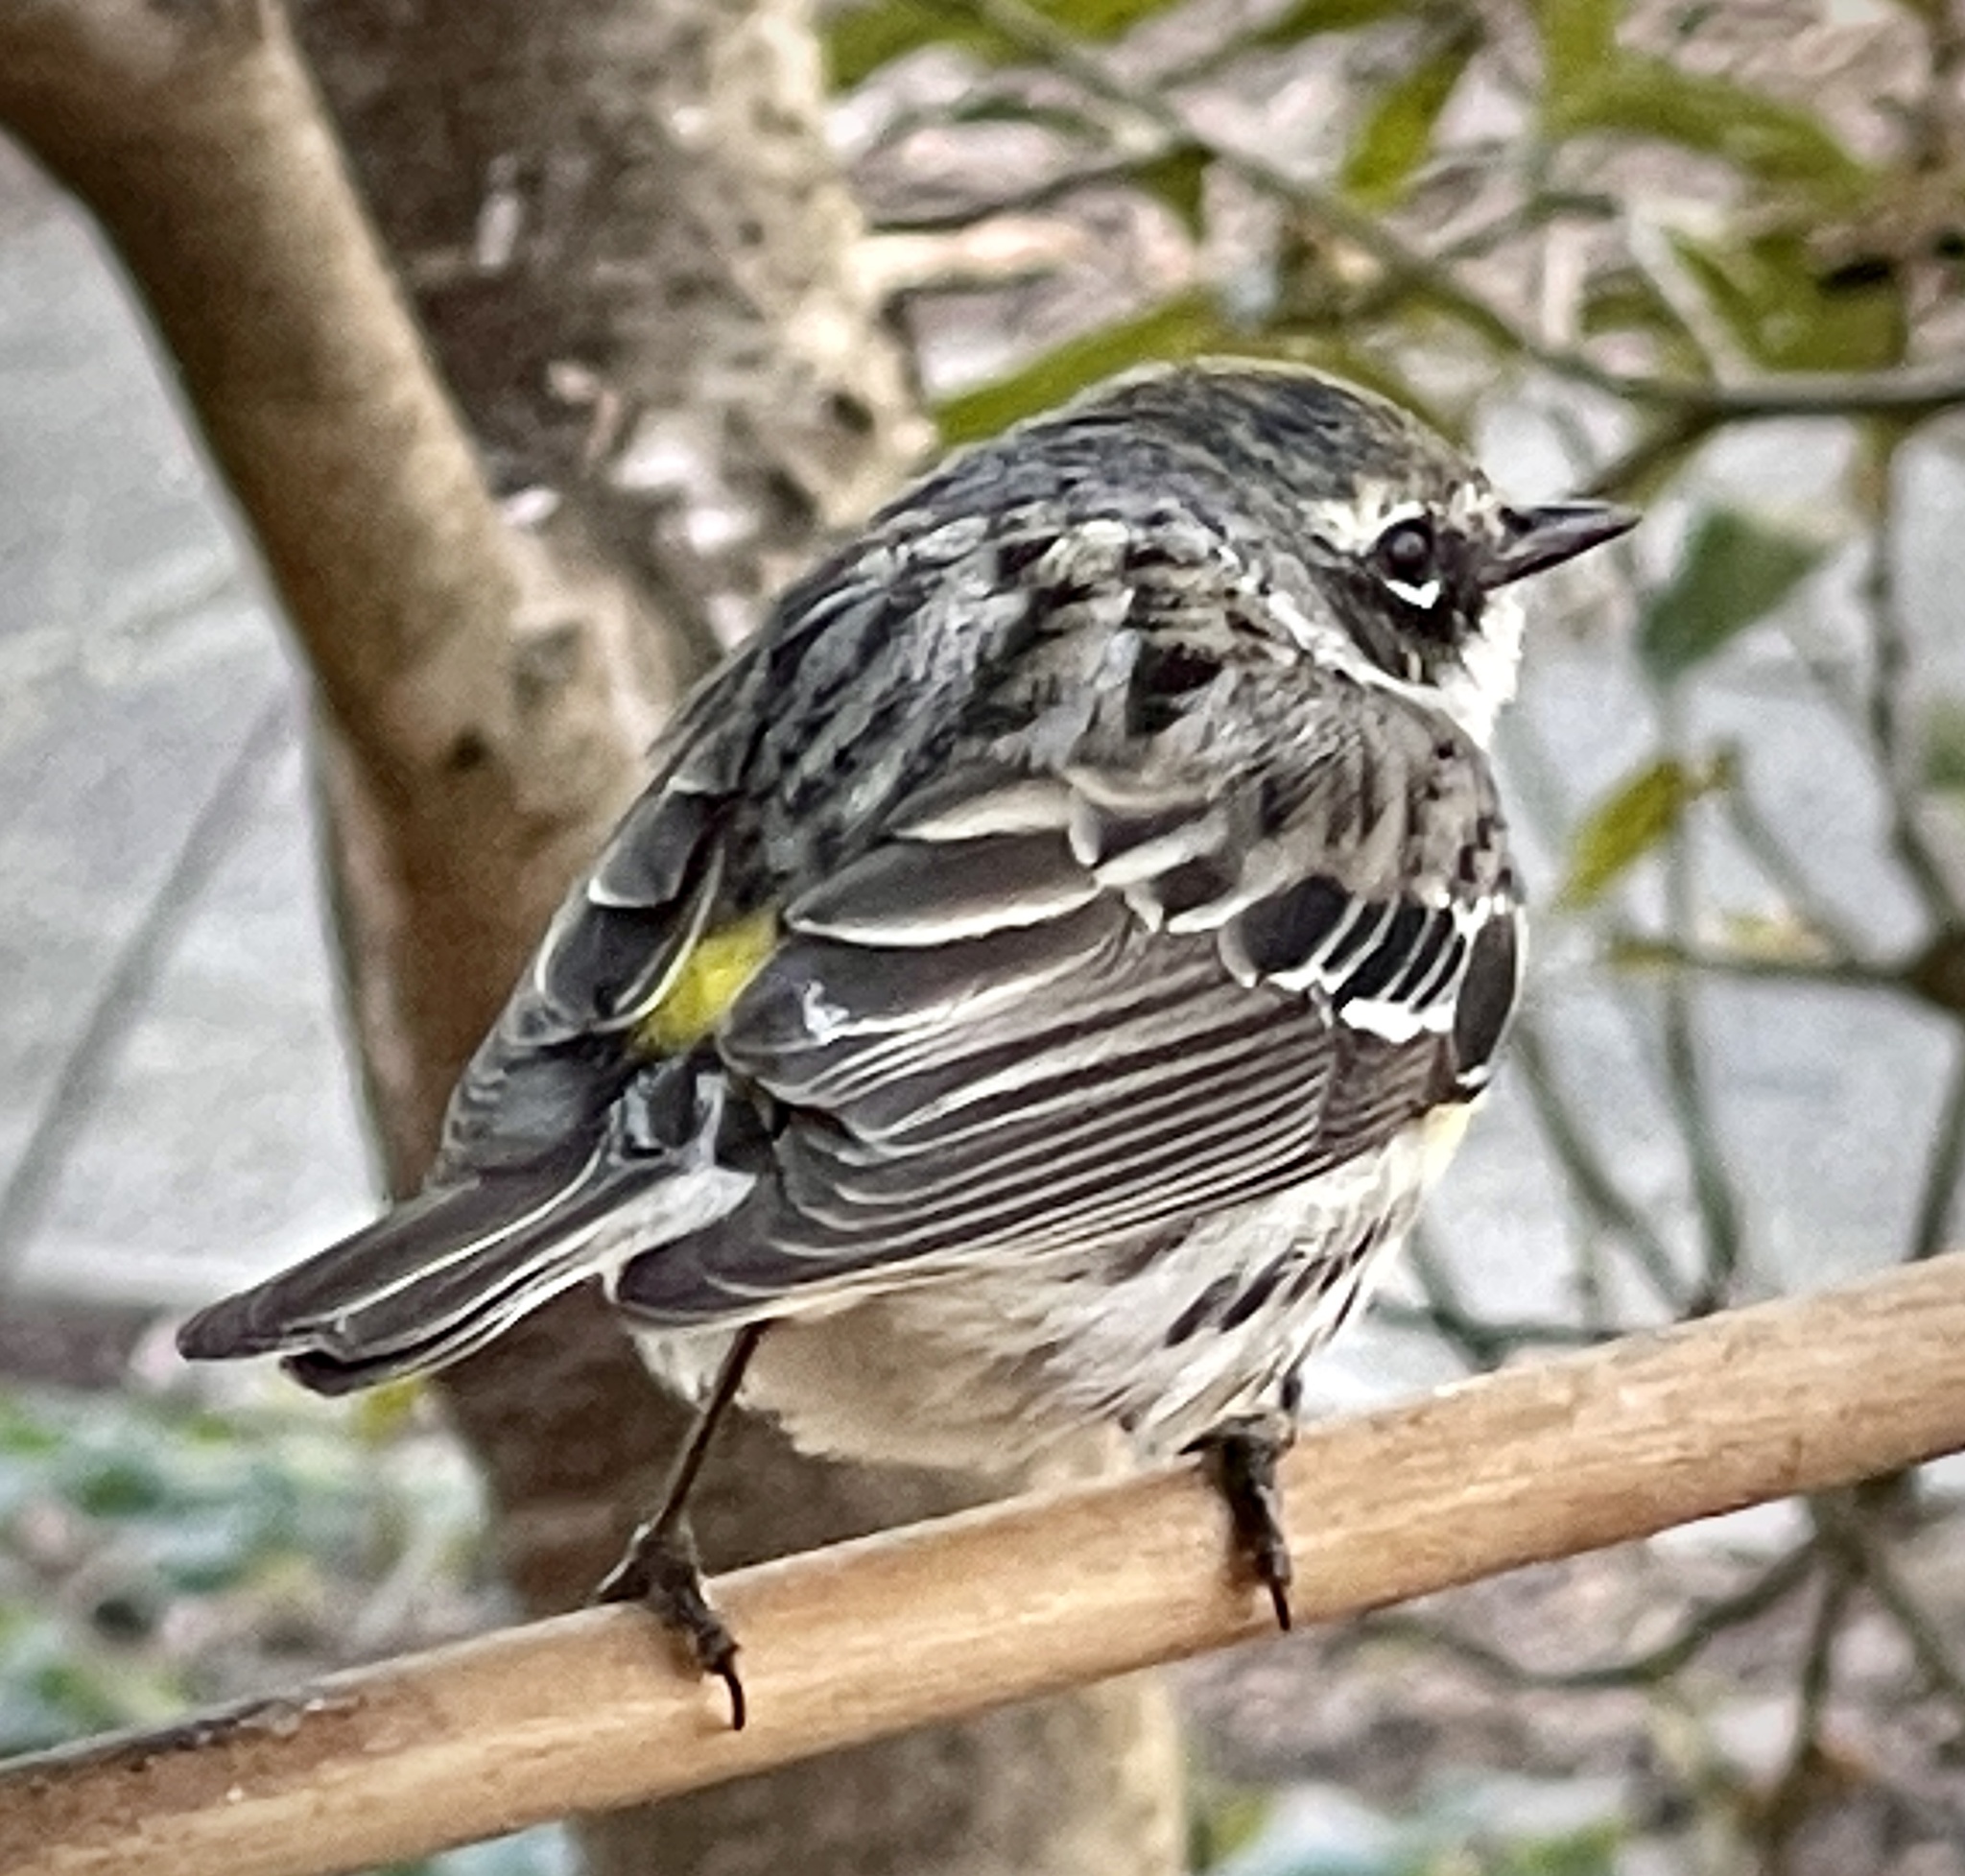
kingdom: Animalia
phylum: Chordata
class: Aves
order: Passeriformes
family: Parulidae
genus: Setophaga
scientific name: Setophaga coronata
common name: Myrtle warbler
